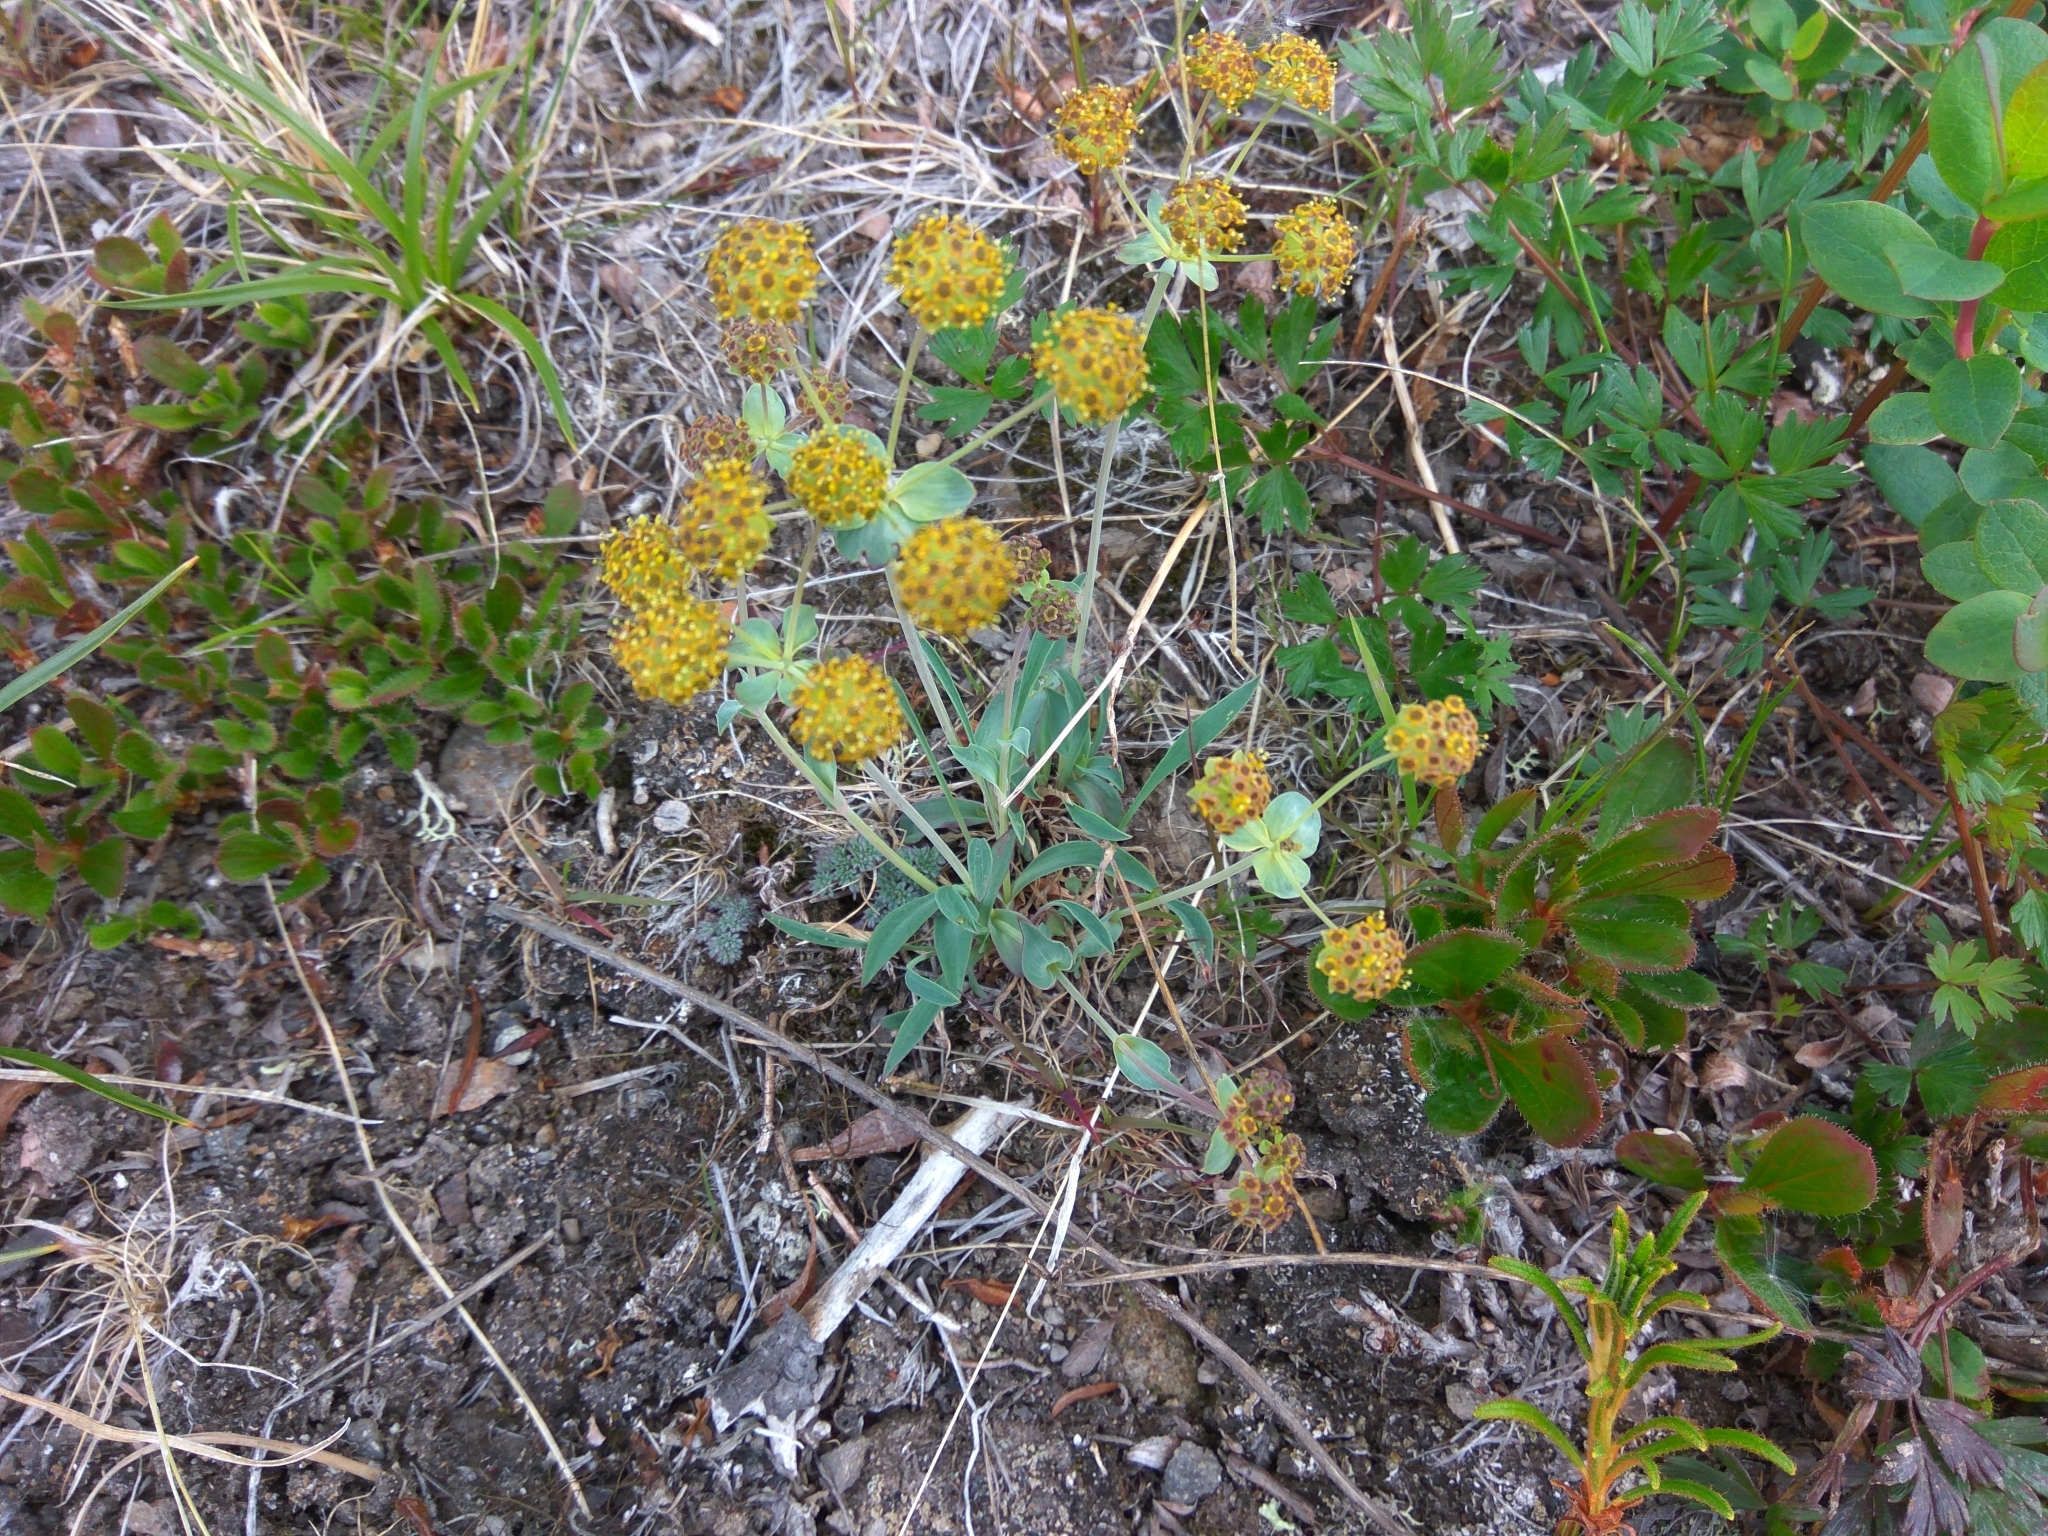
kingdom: Plantae
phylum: Tracheophyta
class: Magnoliopsida
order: Apiales
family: Apiaceae
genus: Bupleurum
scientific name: Bupleurum triradiatum
